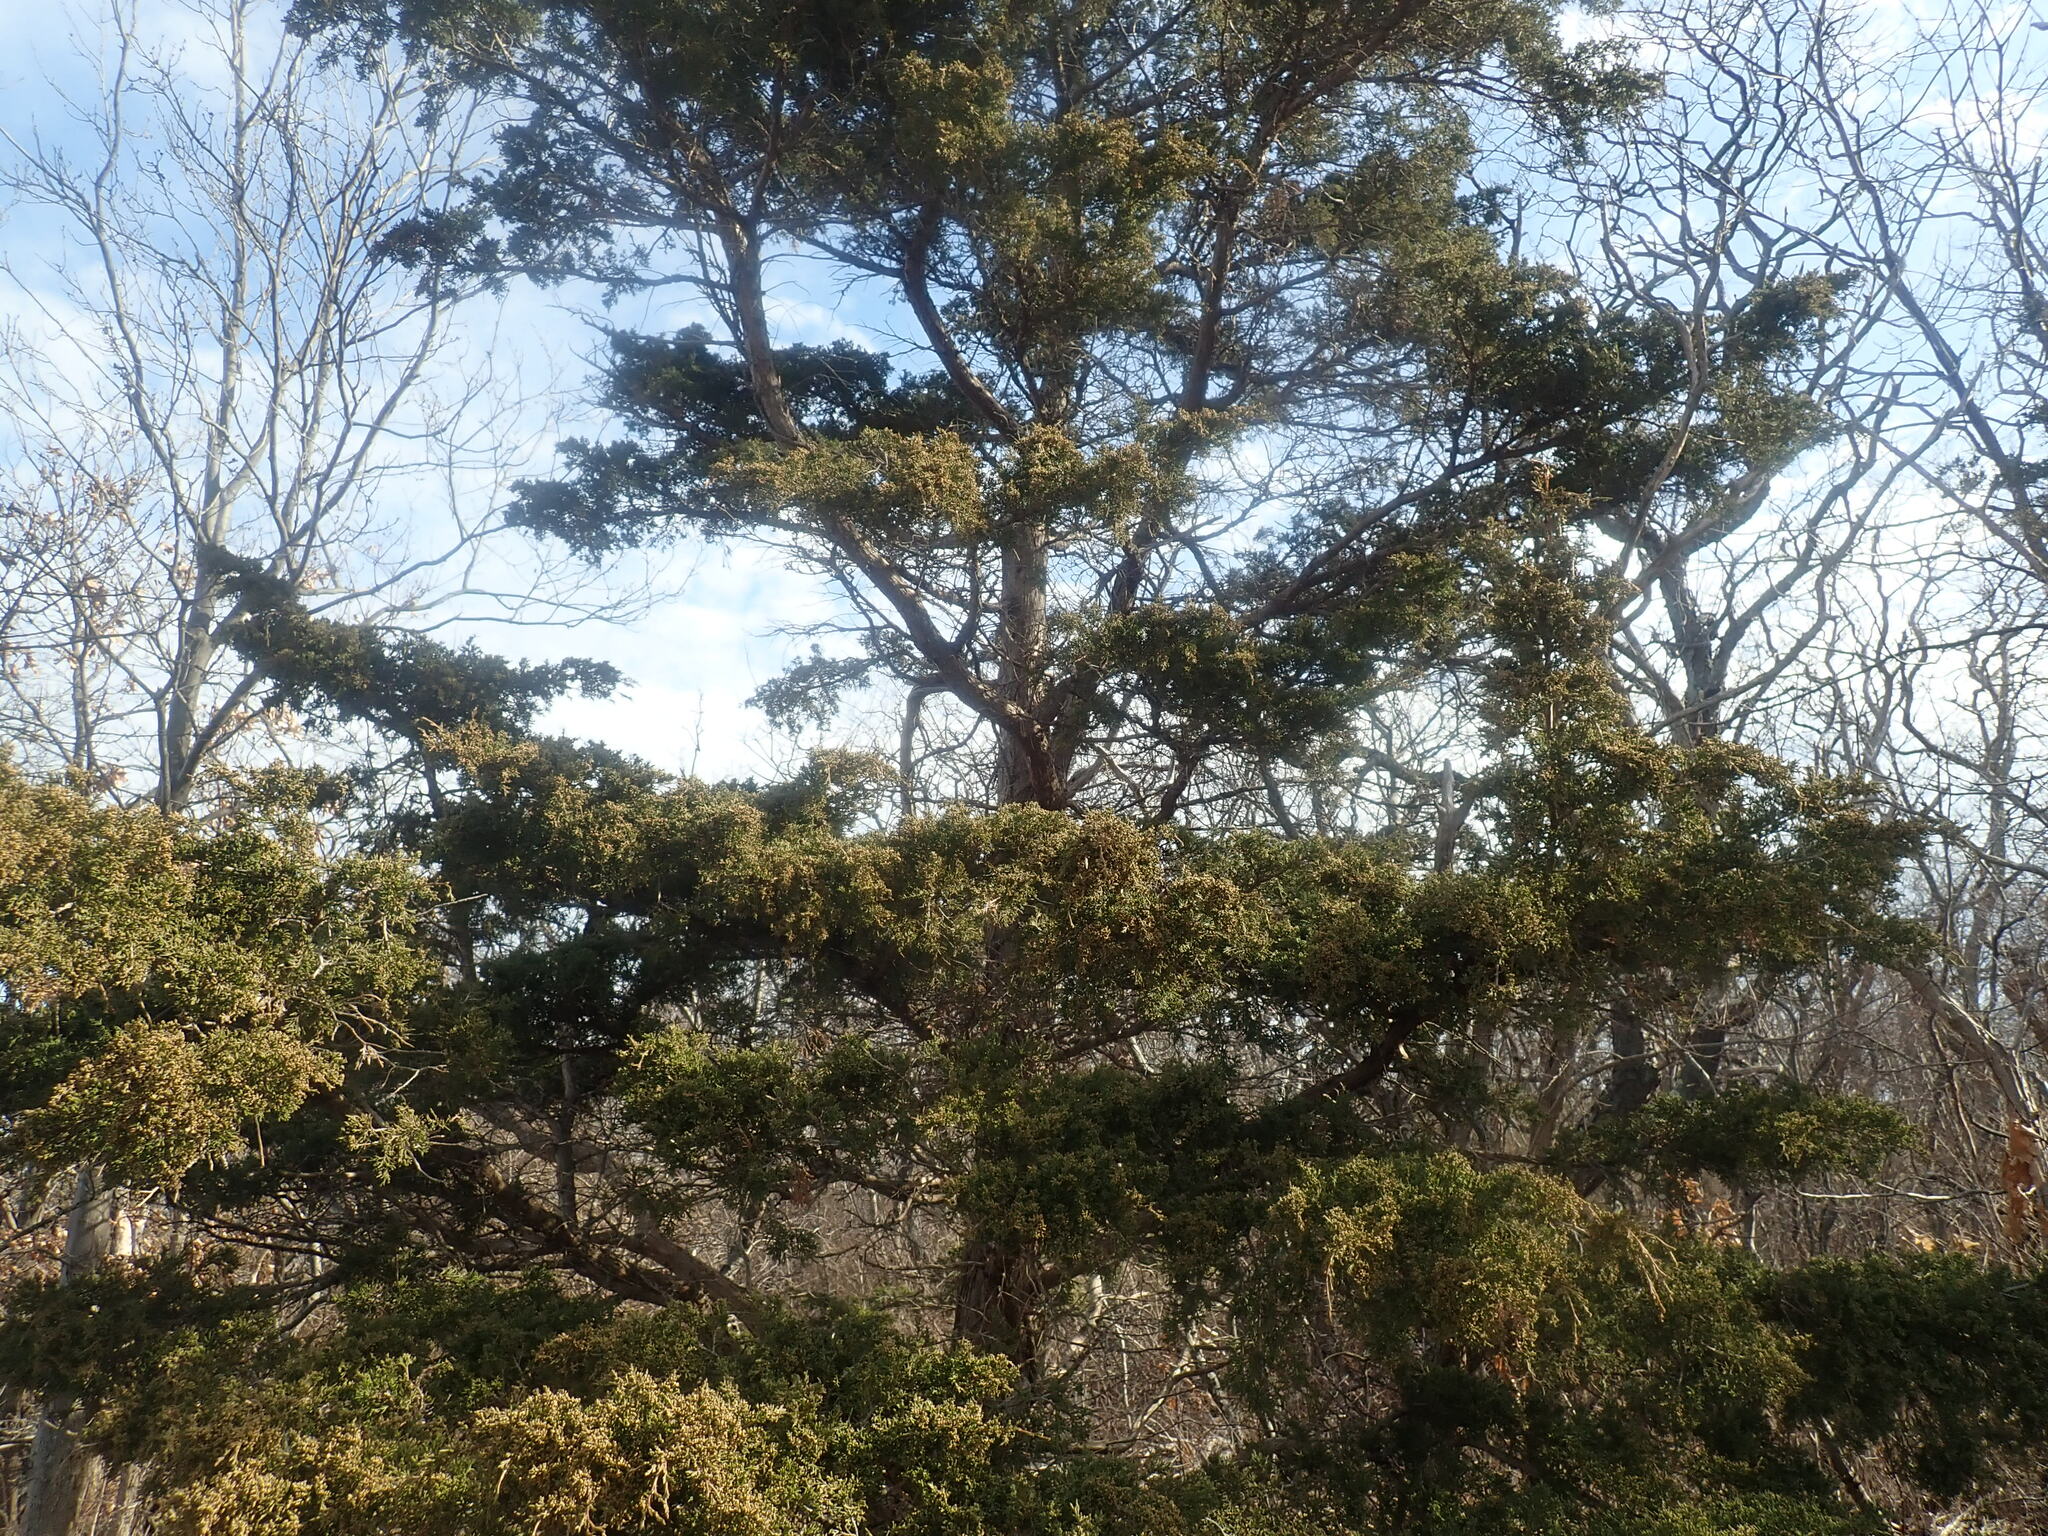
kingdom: Plantae
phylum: Tracheophyta
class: Pinopsida
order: Pinales
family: Cupressaceae
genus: Juniperus
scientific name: Juniperus virginiana
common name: Red juniper
